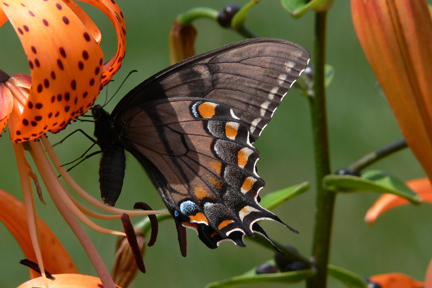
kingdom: Animalia
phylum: Arthropoda
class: Insecta
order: Lepidoptera
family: Papilionidae
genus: Papilio
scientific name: Papilio glaucus
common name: Tiger swallowtail
